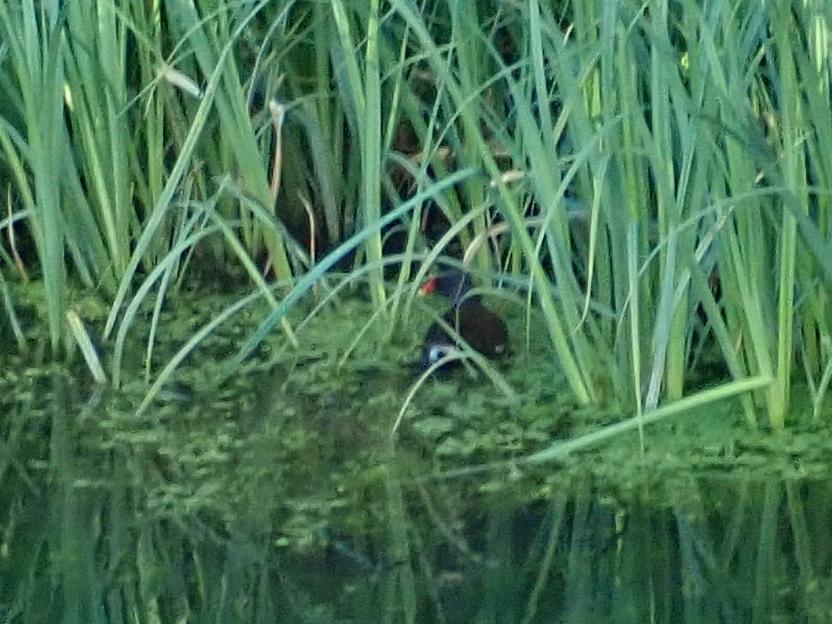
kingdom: Animalia
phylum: Chordata
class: Aves
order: Gruiformes
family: Rallidae
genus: Gallinula
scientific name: Gallinula chloropus
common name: Common moorhen
